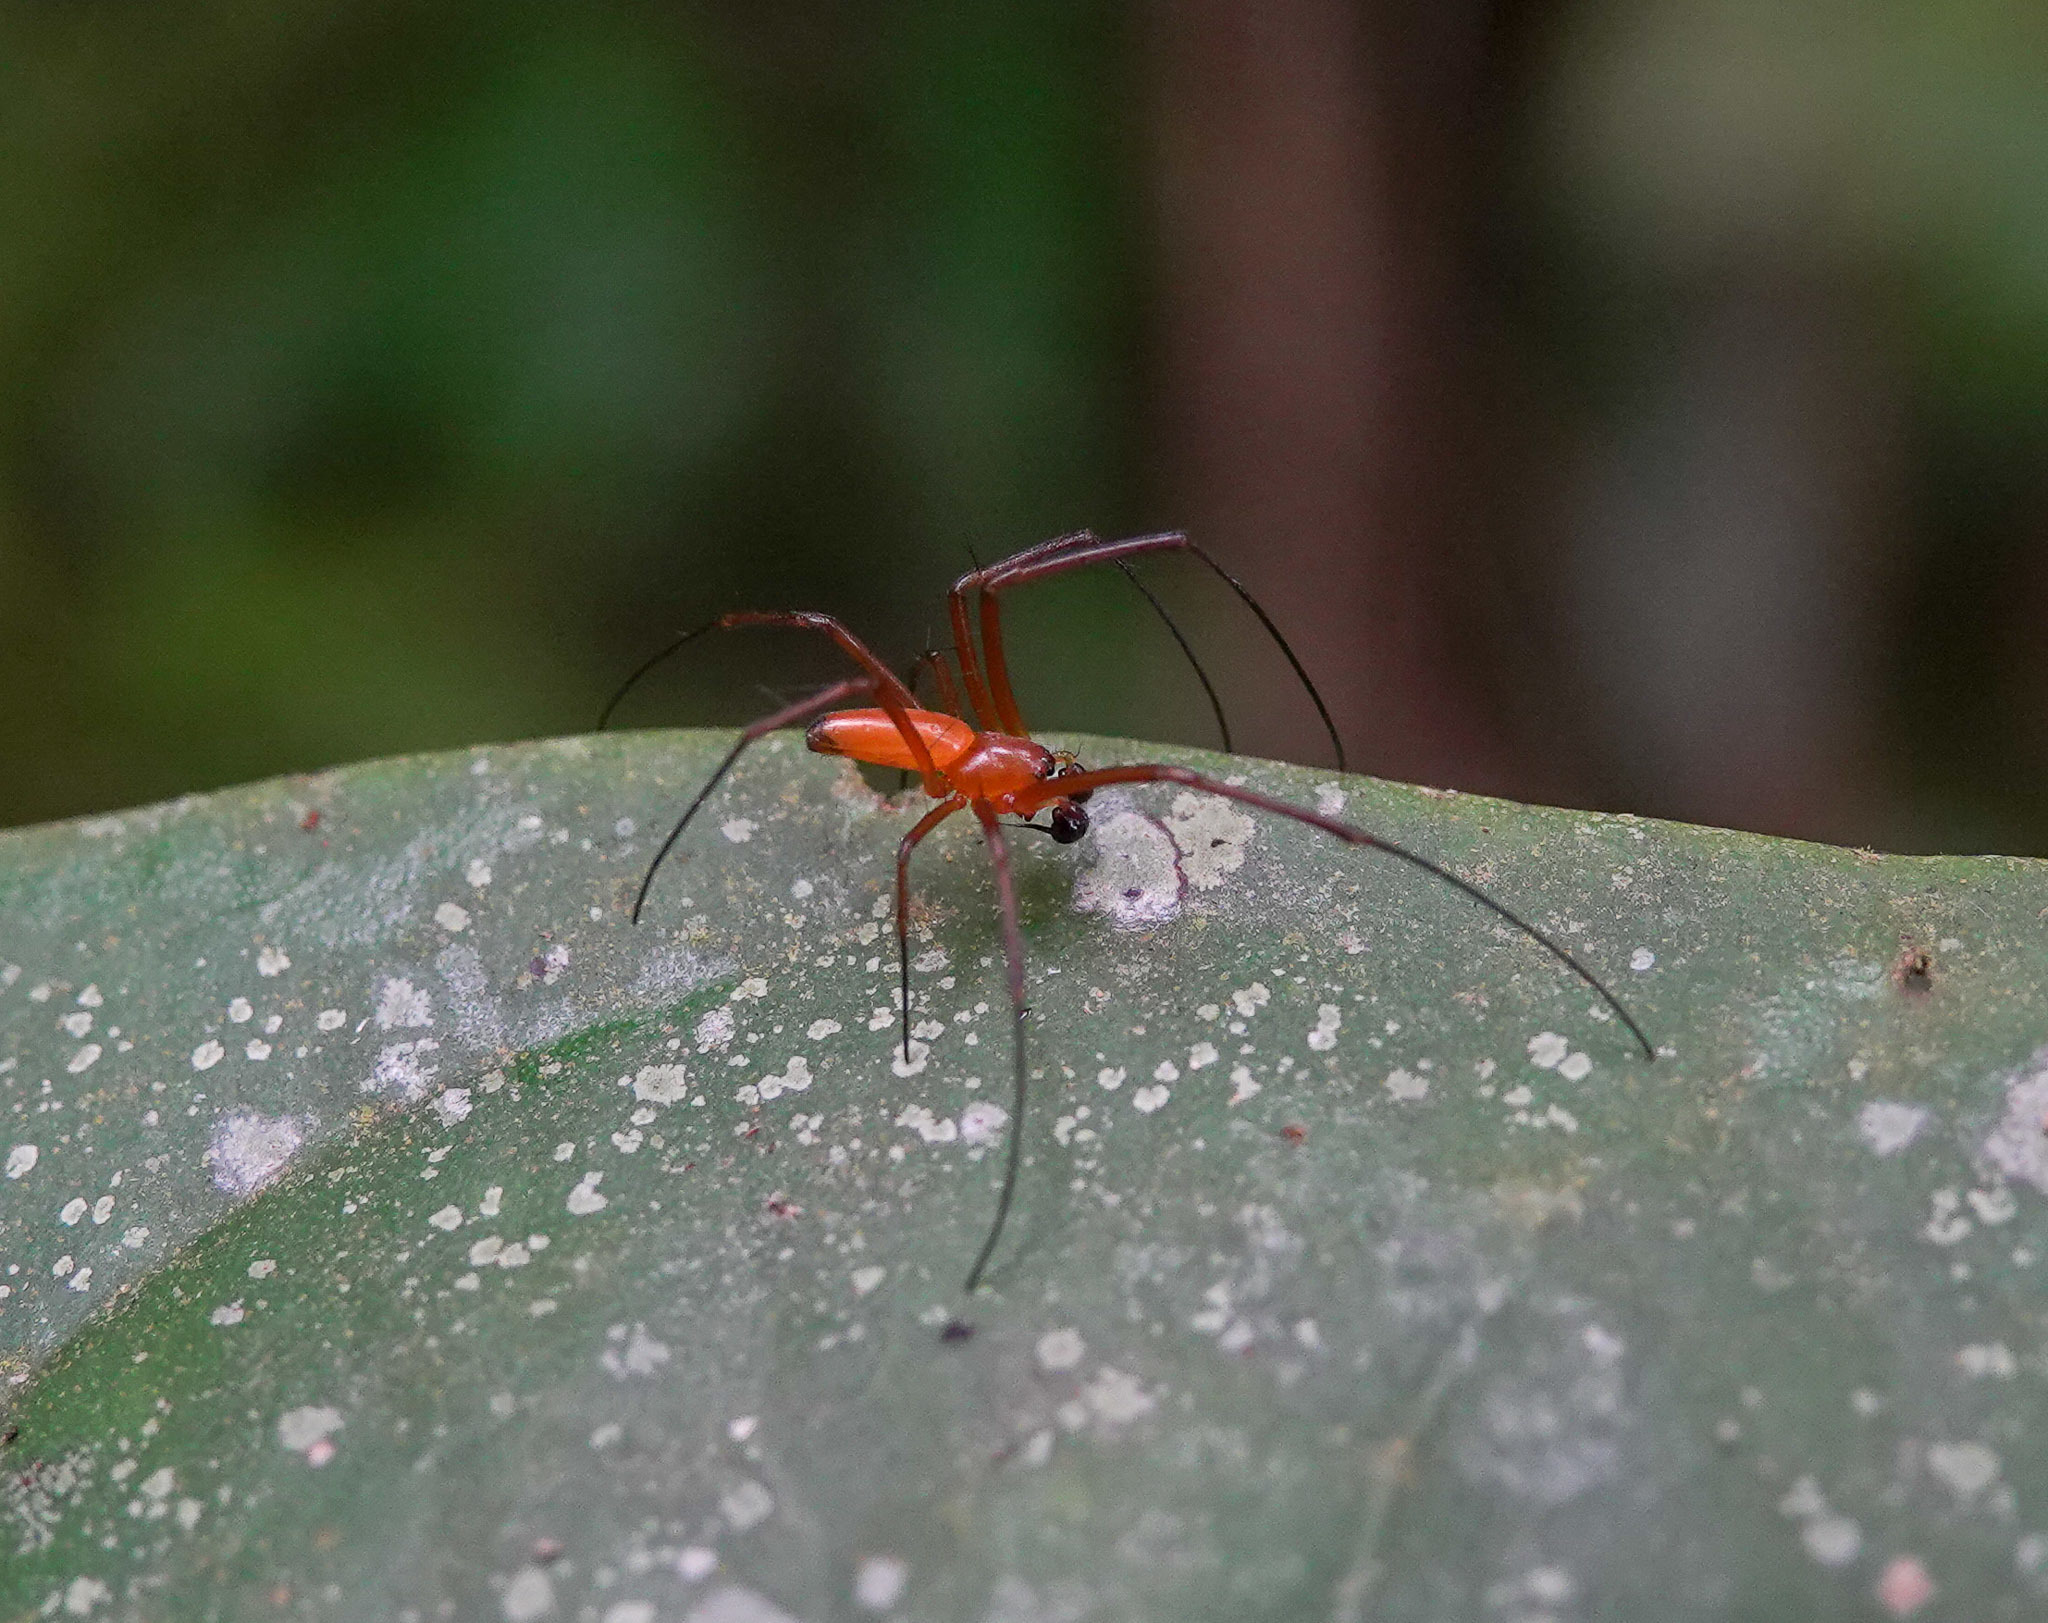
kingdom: Animalia
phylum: Arthropoda
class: Arachnida
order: Araneae
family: Araneidae
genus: Nephila
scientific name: Nephila pilipes
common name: Giant golden orb weaver
